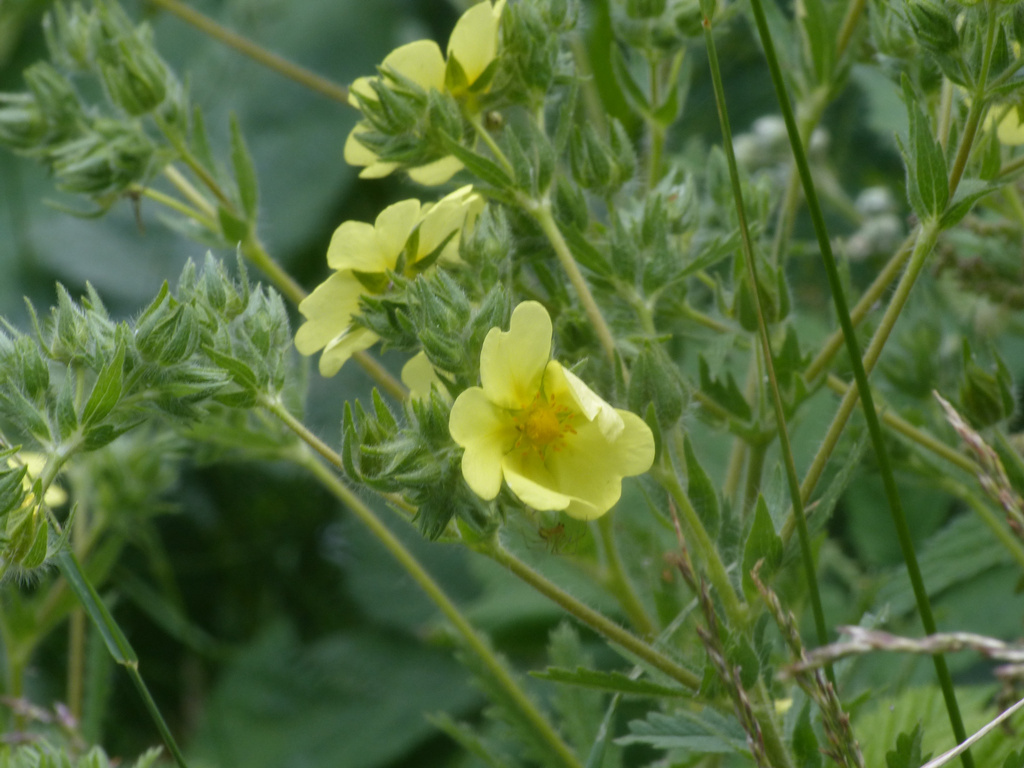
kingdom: Plantae
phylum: Tracheophyta
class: Magnoliopsida
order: Rosales
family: Rosaceae
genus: Potentilla
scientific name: Potentilla recta
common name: Sulphur cinquefoil
